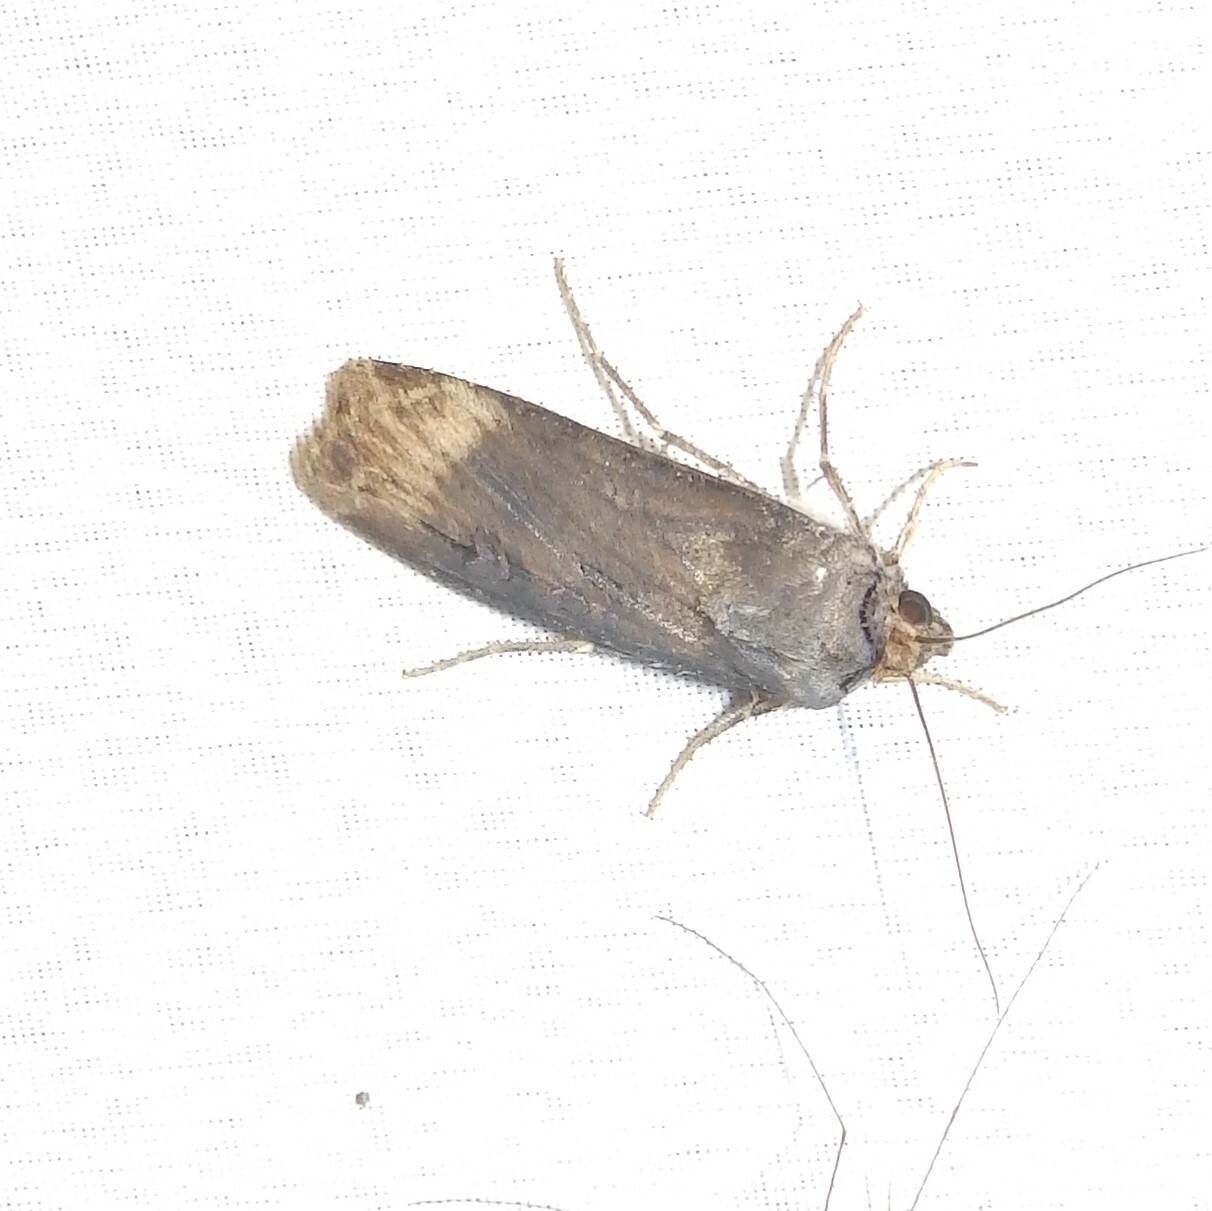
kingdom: Animalia
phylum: Arthropoda
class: Insecta
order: Lepidoptera
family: Noctuidae
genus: Agrotis
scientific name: Agrotis ipsilon
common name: Dark sword-grass
